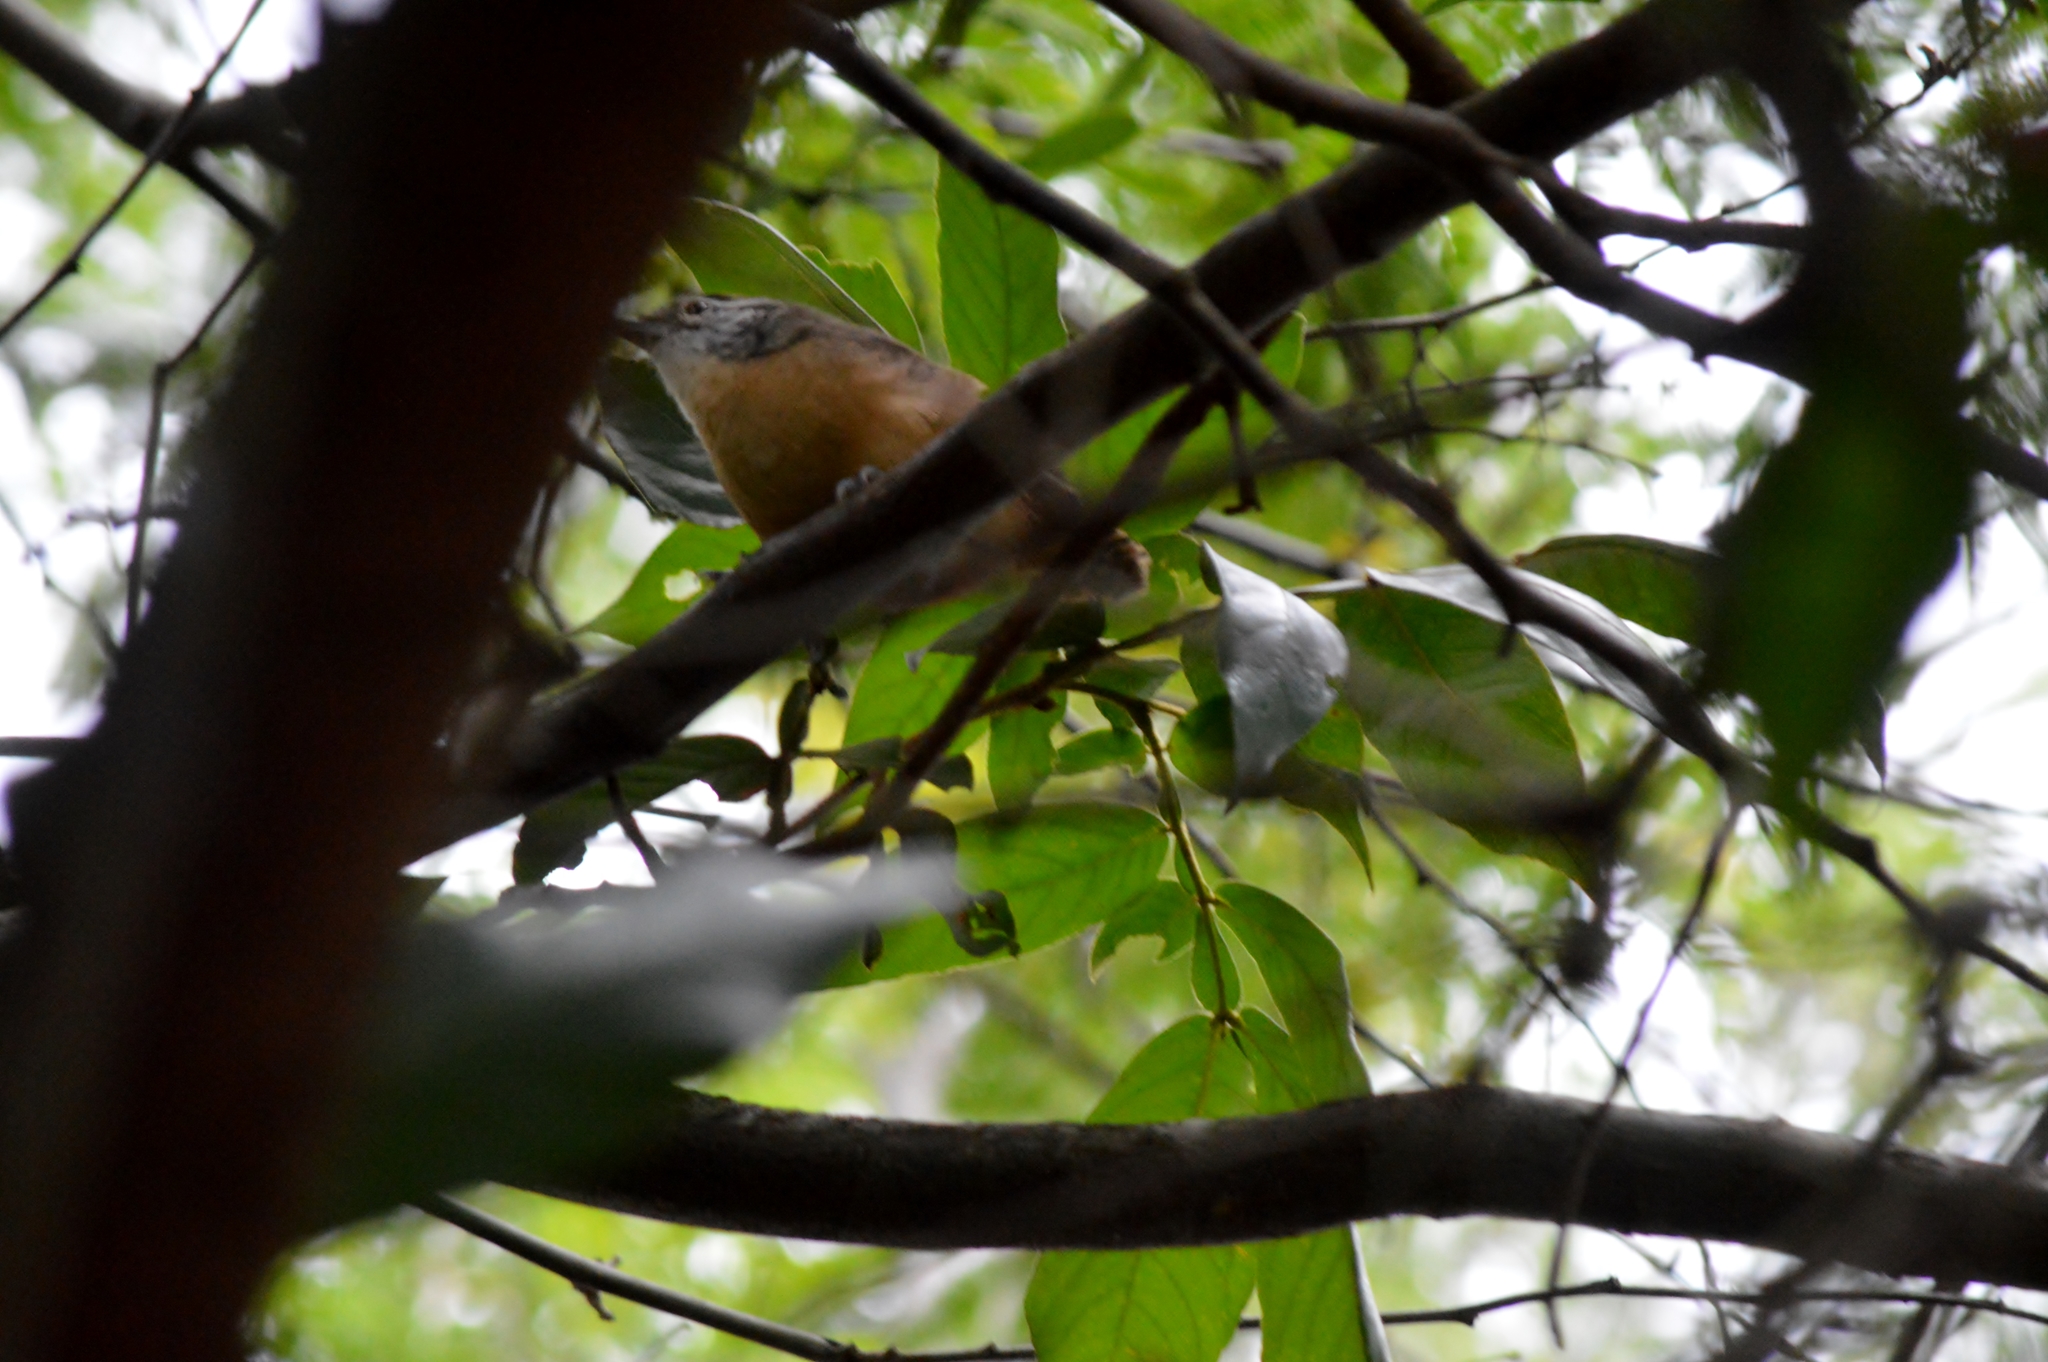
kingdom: Animalia
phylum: Chordata
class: Aves
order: Passeriformes
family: Troglodytidae
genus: Cantorchilus
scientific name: Cantorchilus leucotis
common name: Buff-breasted wren
